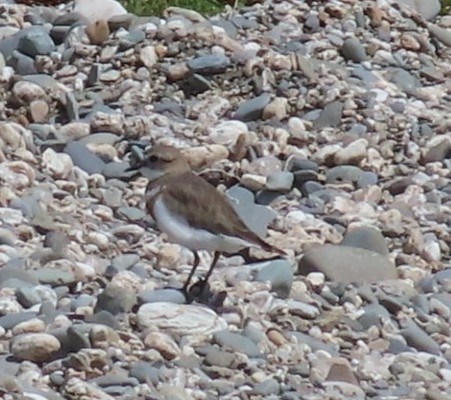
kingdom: Animalia
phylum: Chordata
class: Aves
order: Charadriiformes
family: Charadriidae
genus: Anarhynchus
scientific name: Anarhynchus
